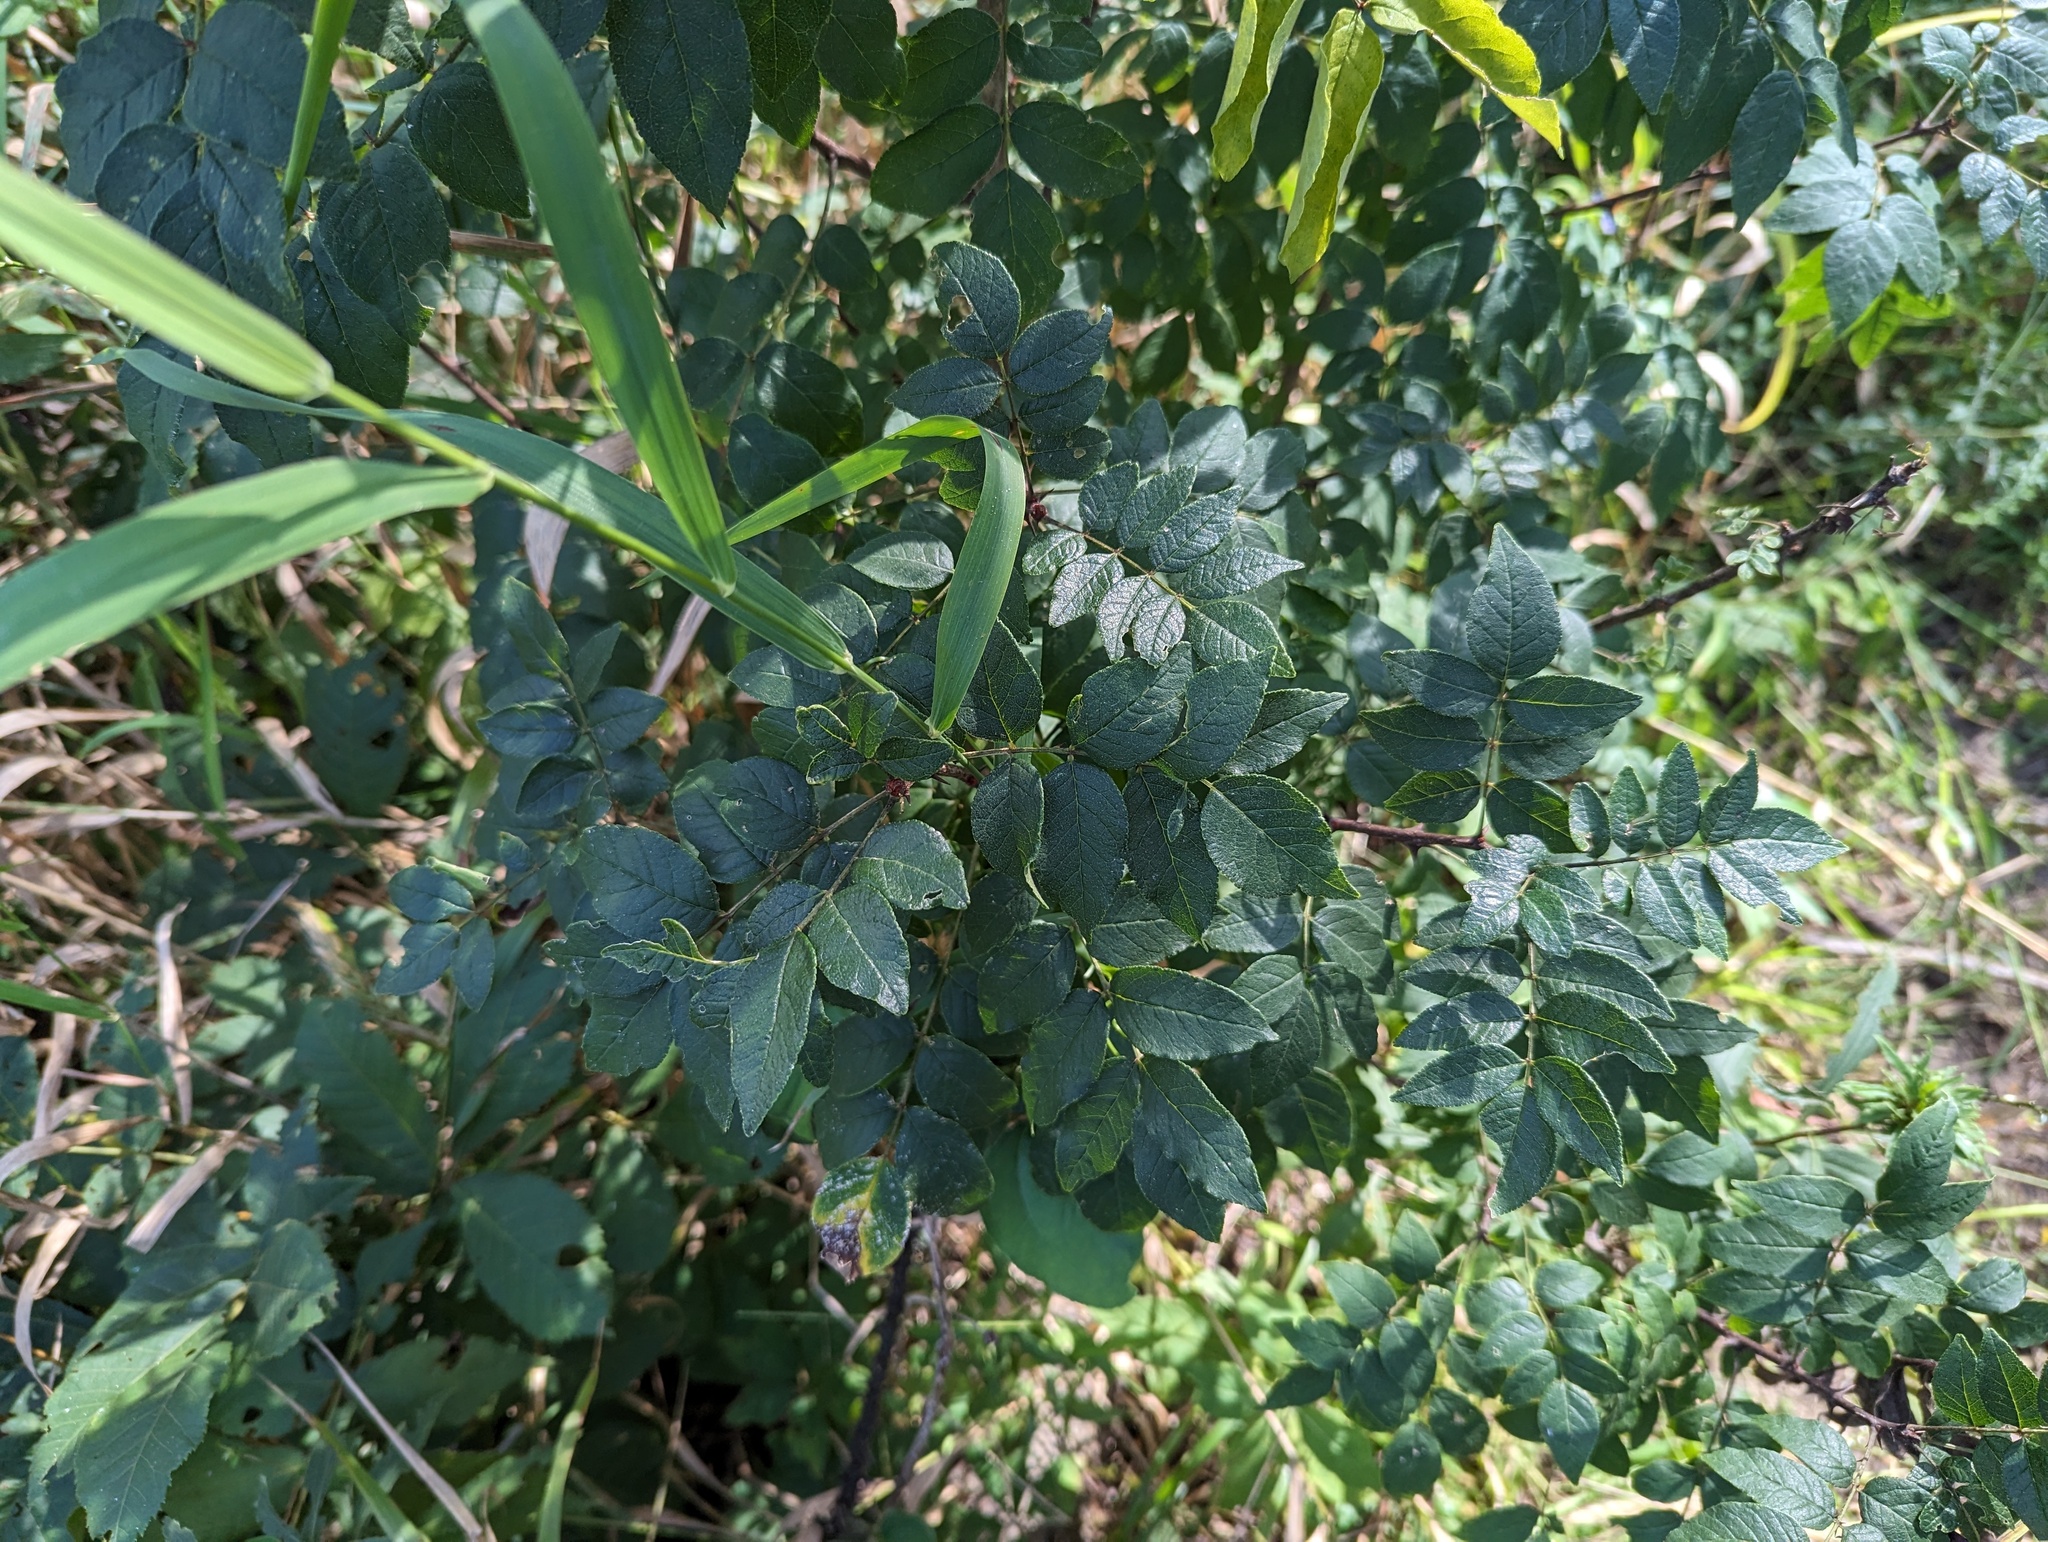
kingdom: Plantae
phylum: Tracheophyta
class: Magnoliopsida
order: Sapindales
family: Rutaceae
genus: Zanthoxylum
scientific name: Zanthoxylum americanum
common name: Northern prickly-ash
